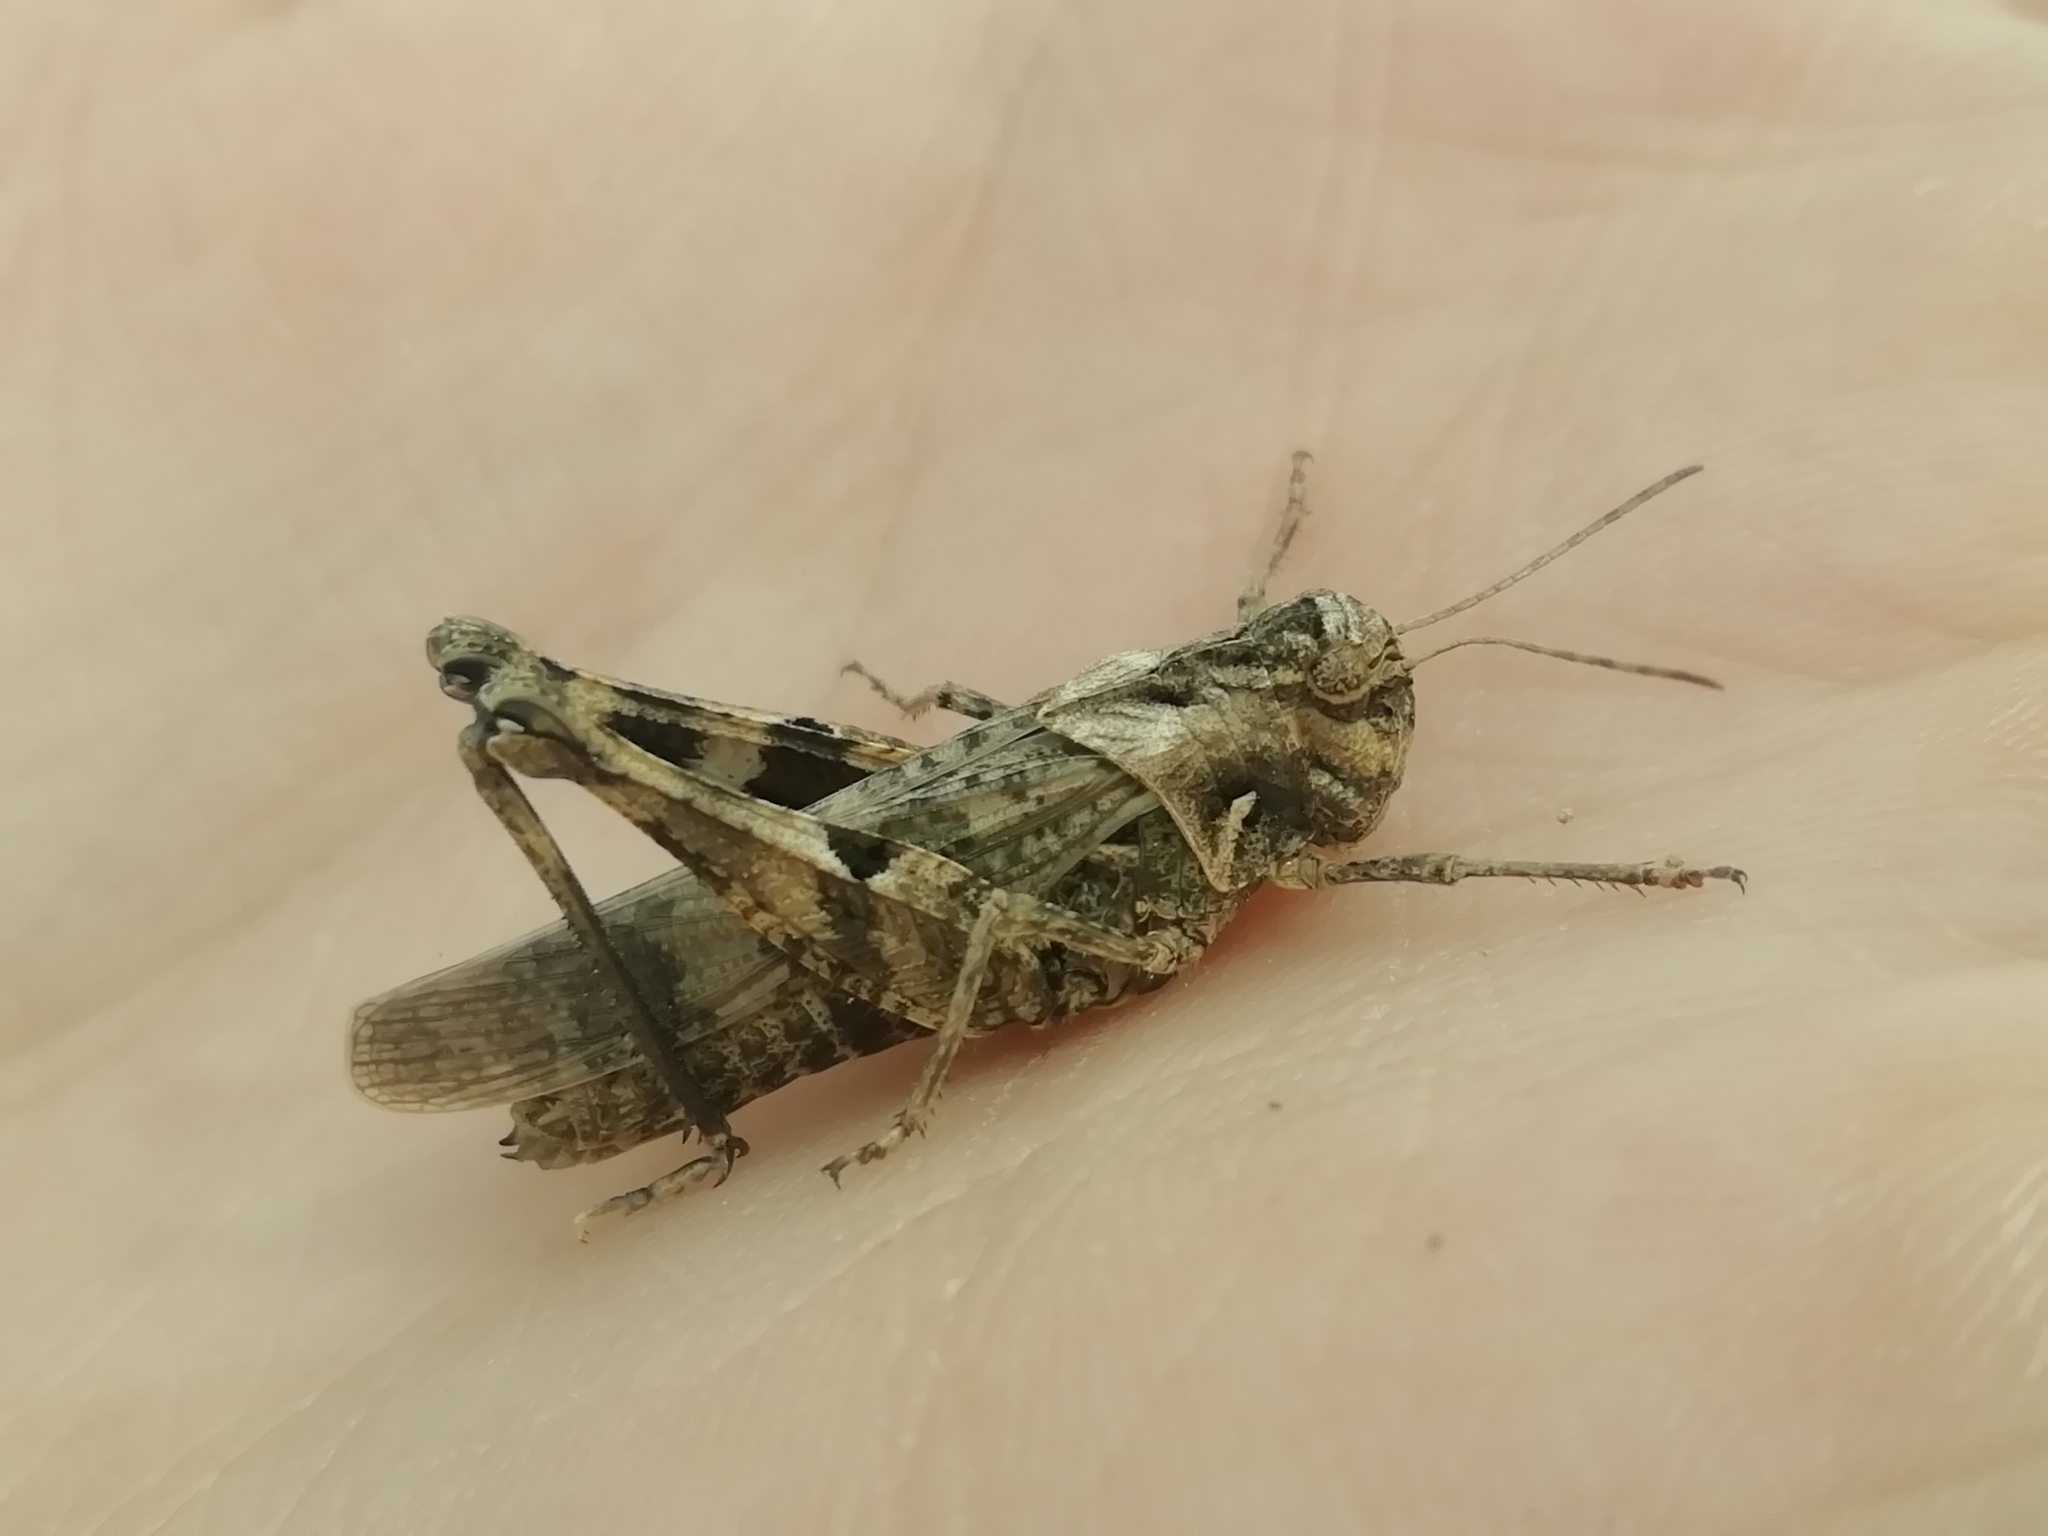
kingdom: Animalia
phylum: Arthropoda
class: Insecta
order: Orthoptera
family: Acrididae
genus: Celes
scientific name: Celes variabilis
